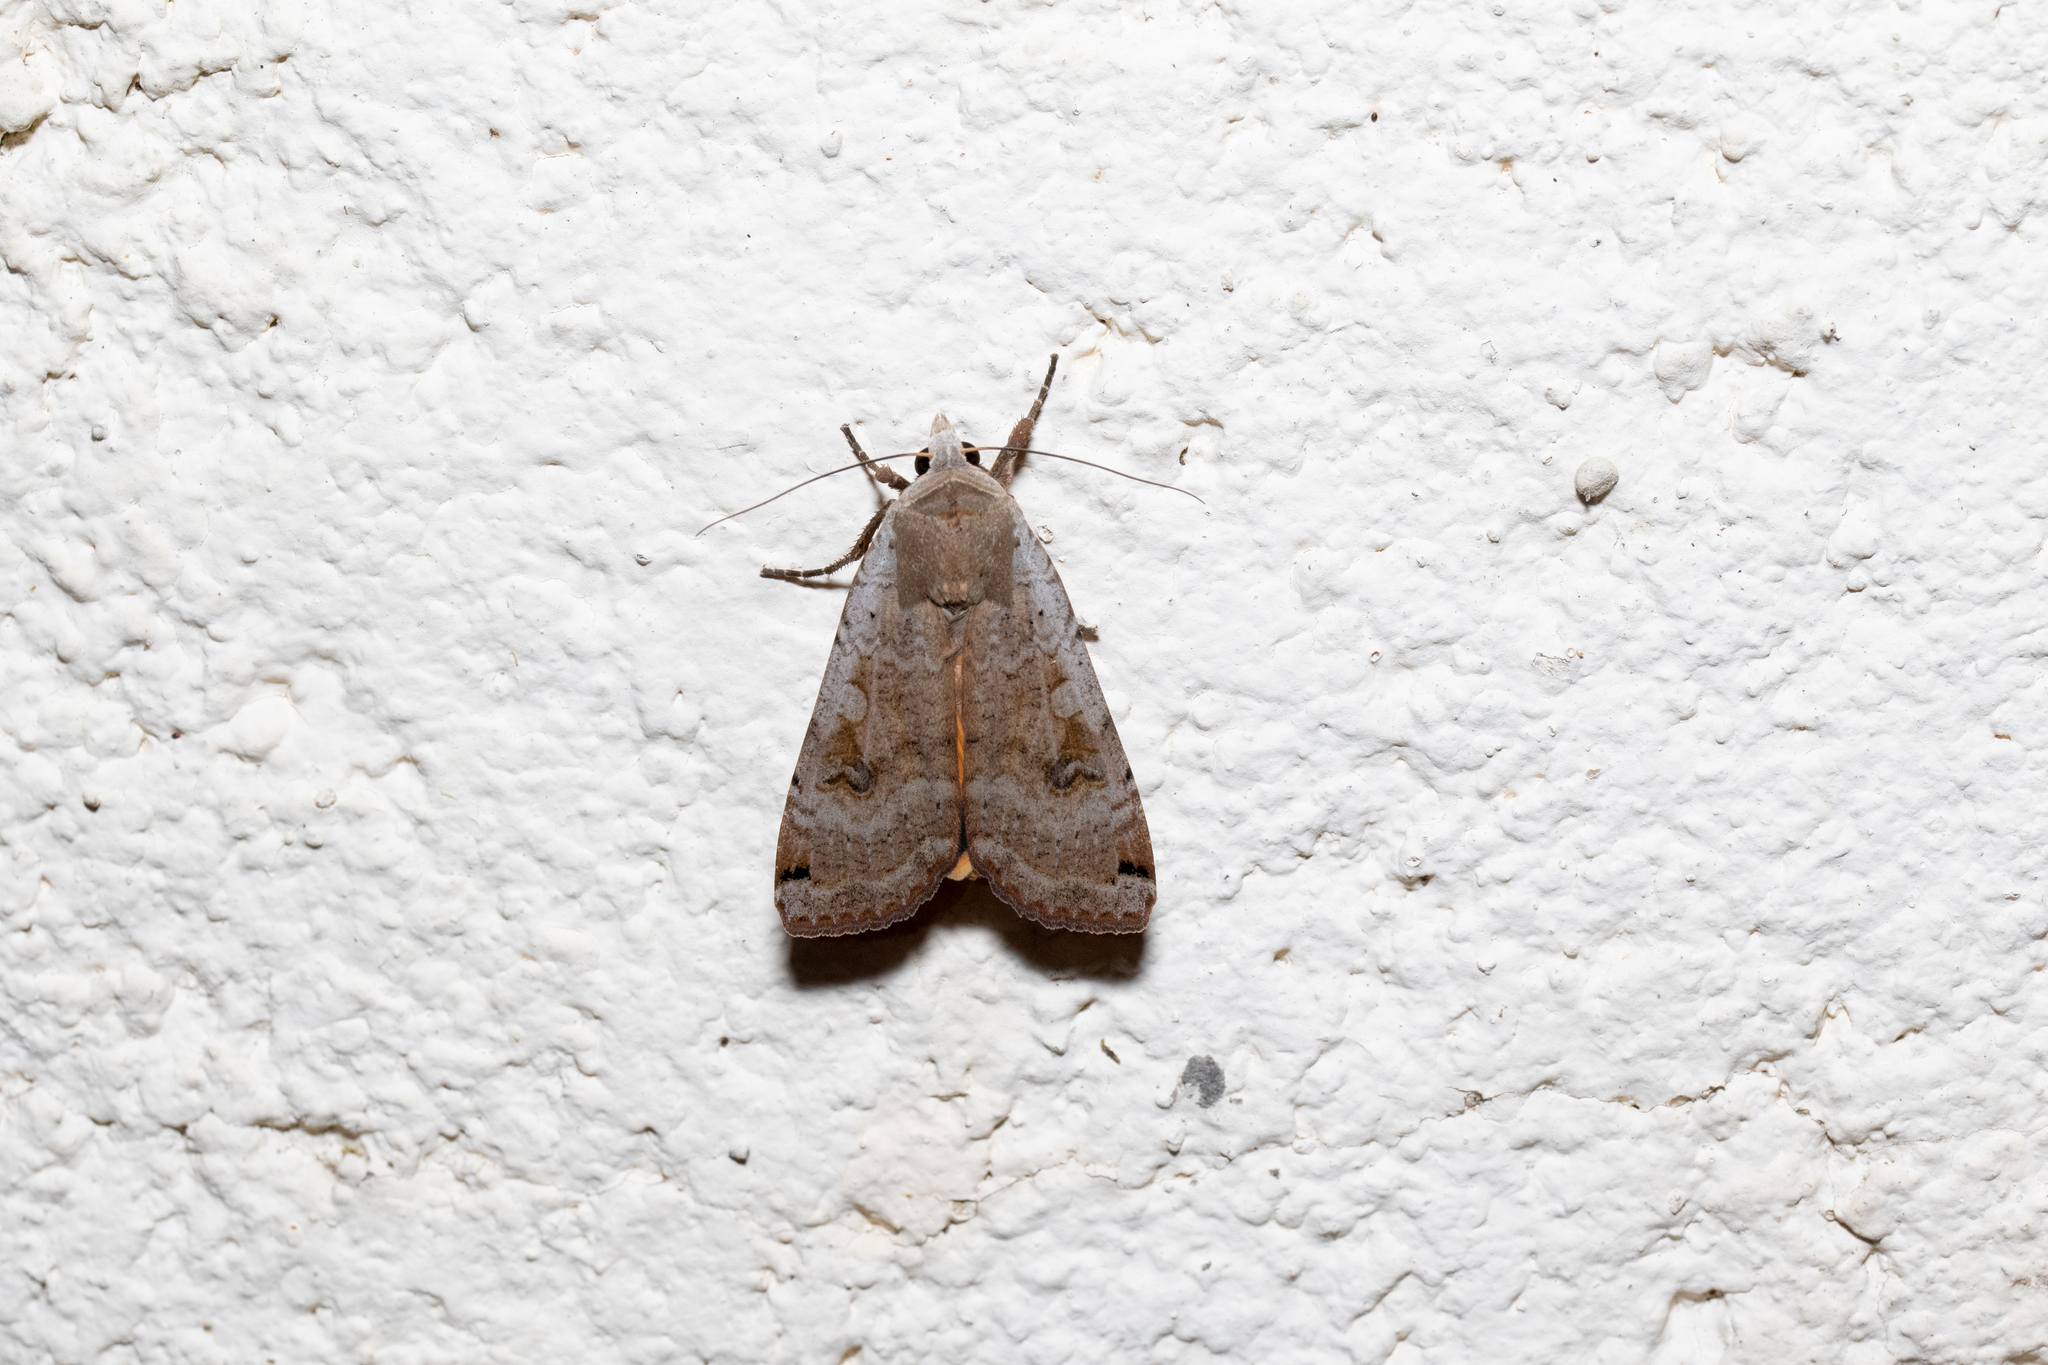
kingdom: Animalia
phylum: Arthropoda
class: Insecta
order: Lepidoptera
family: Noctuidae
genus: Noctua
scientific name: Noctua pronuba
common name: Large yellow underwing
